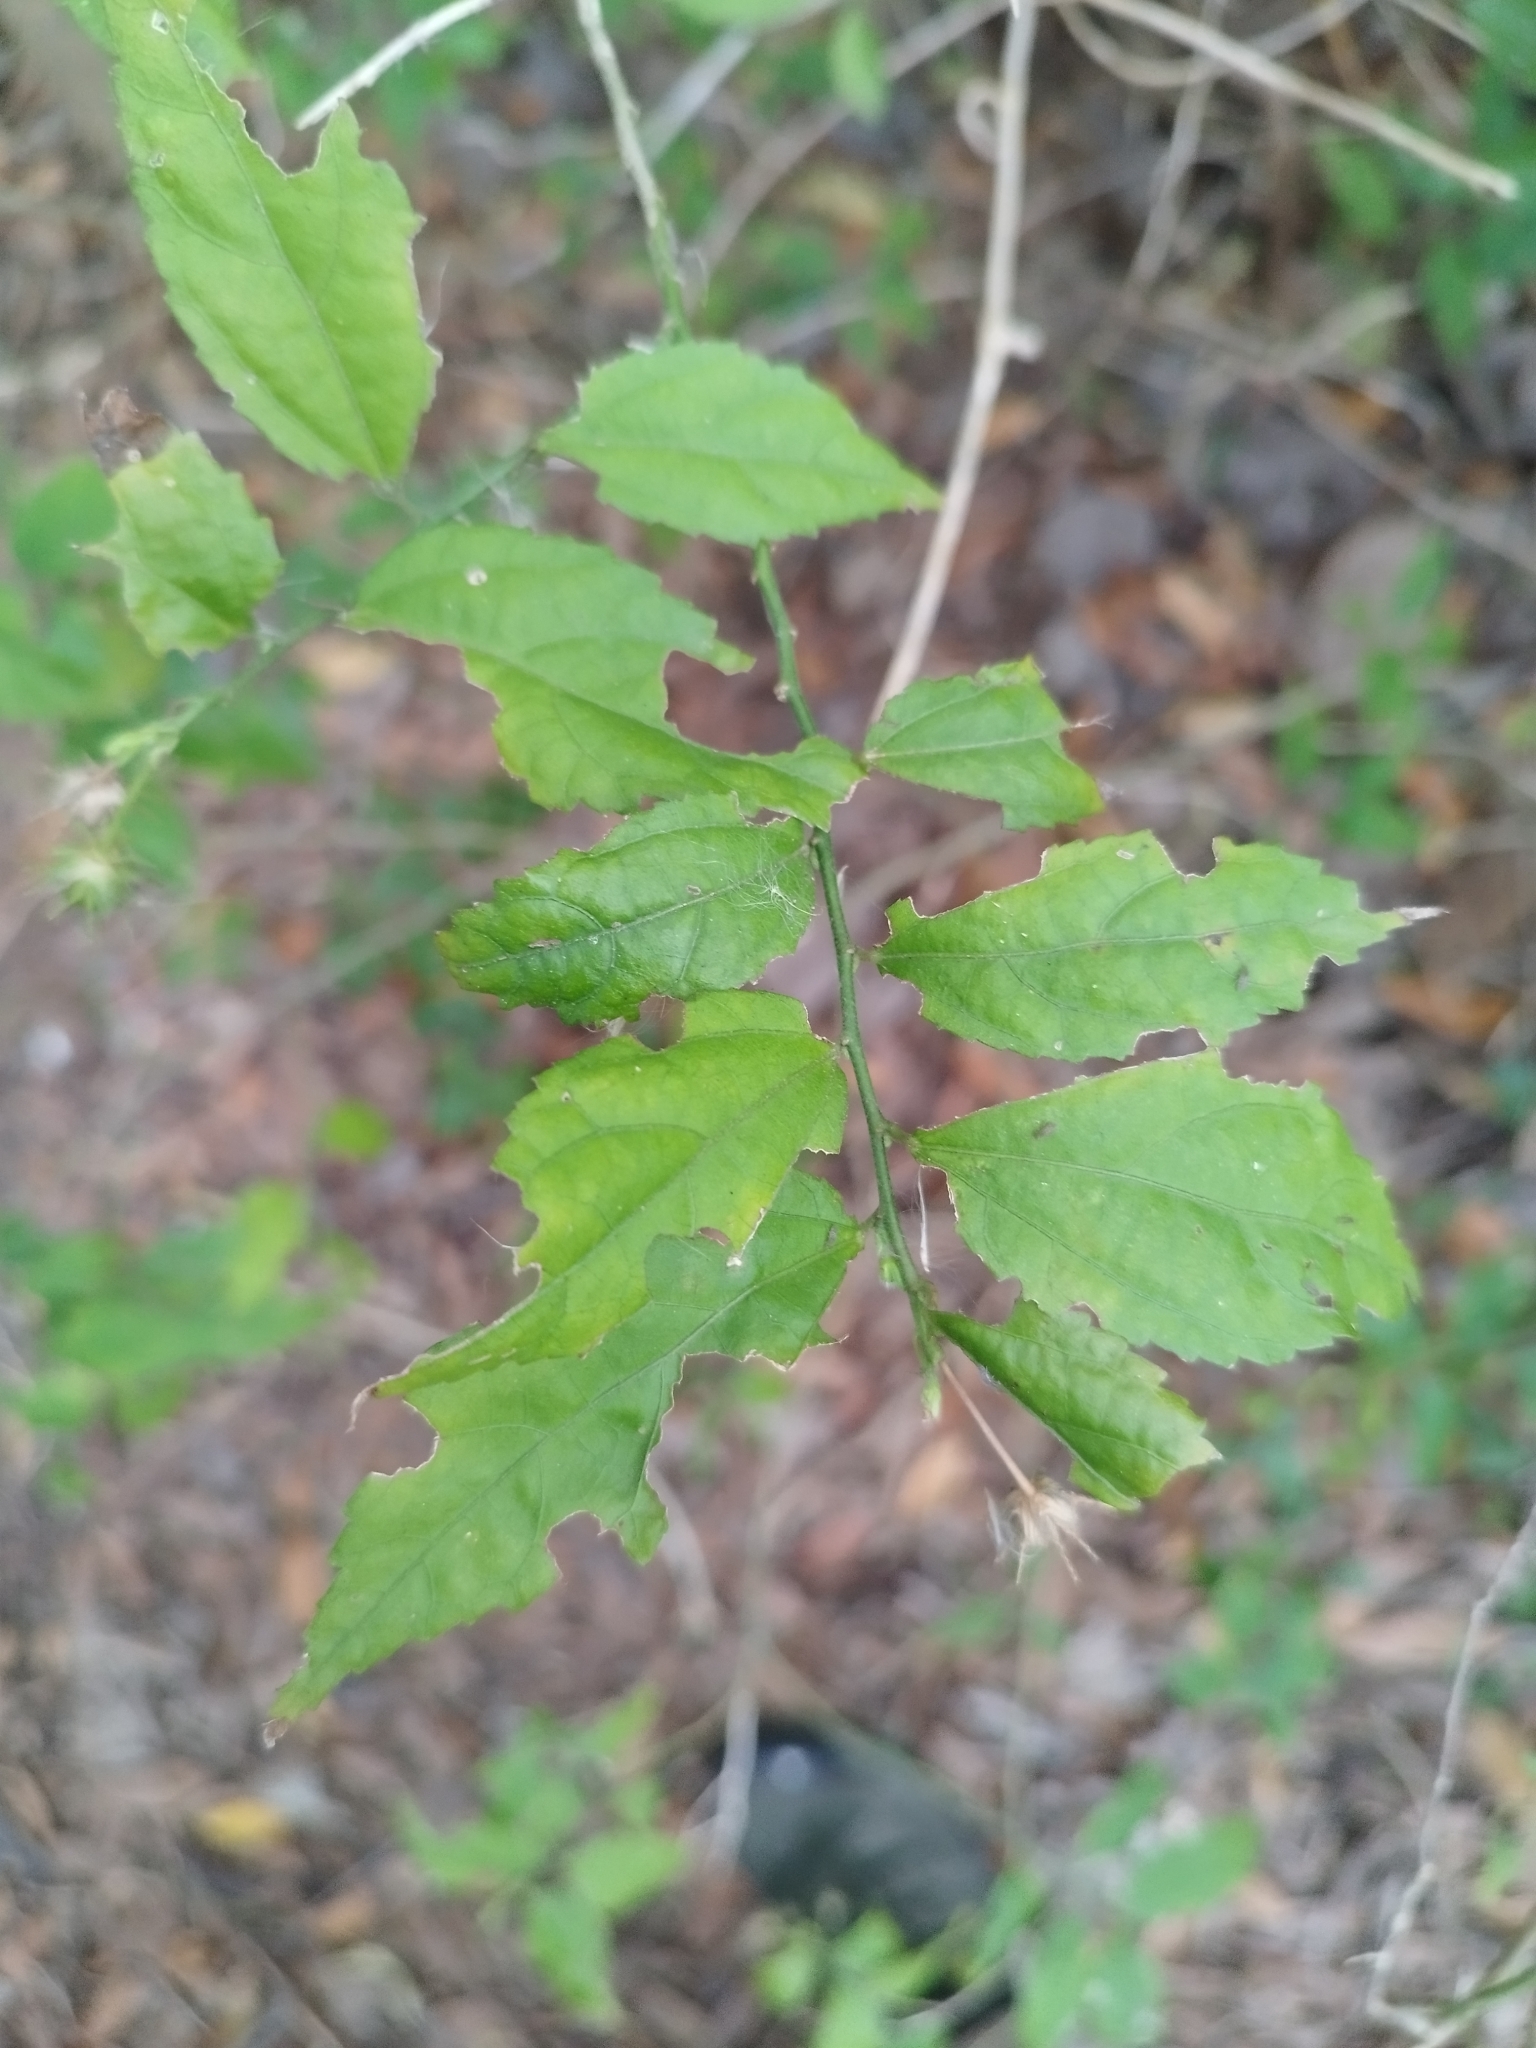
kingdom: Plantae
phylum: Tracheophyta
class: Magnoliopsida
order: Malvales
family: Malvaceae
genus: Pavonia
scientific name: Pavonia sepium
